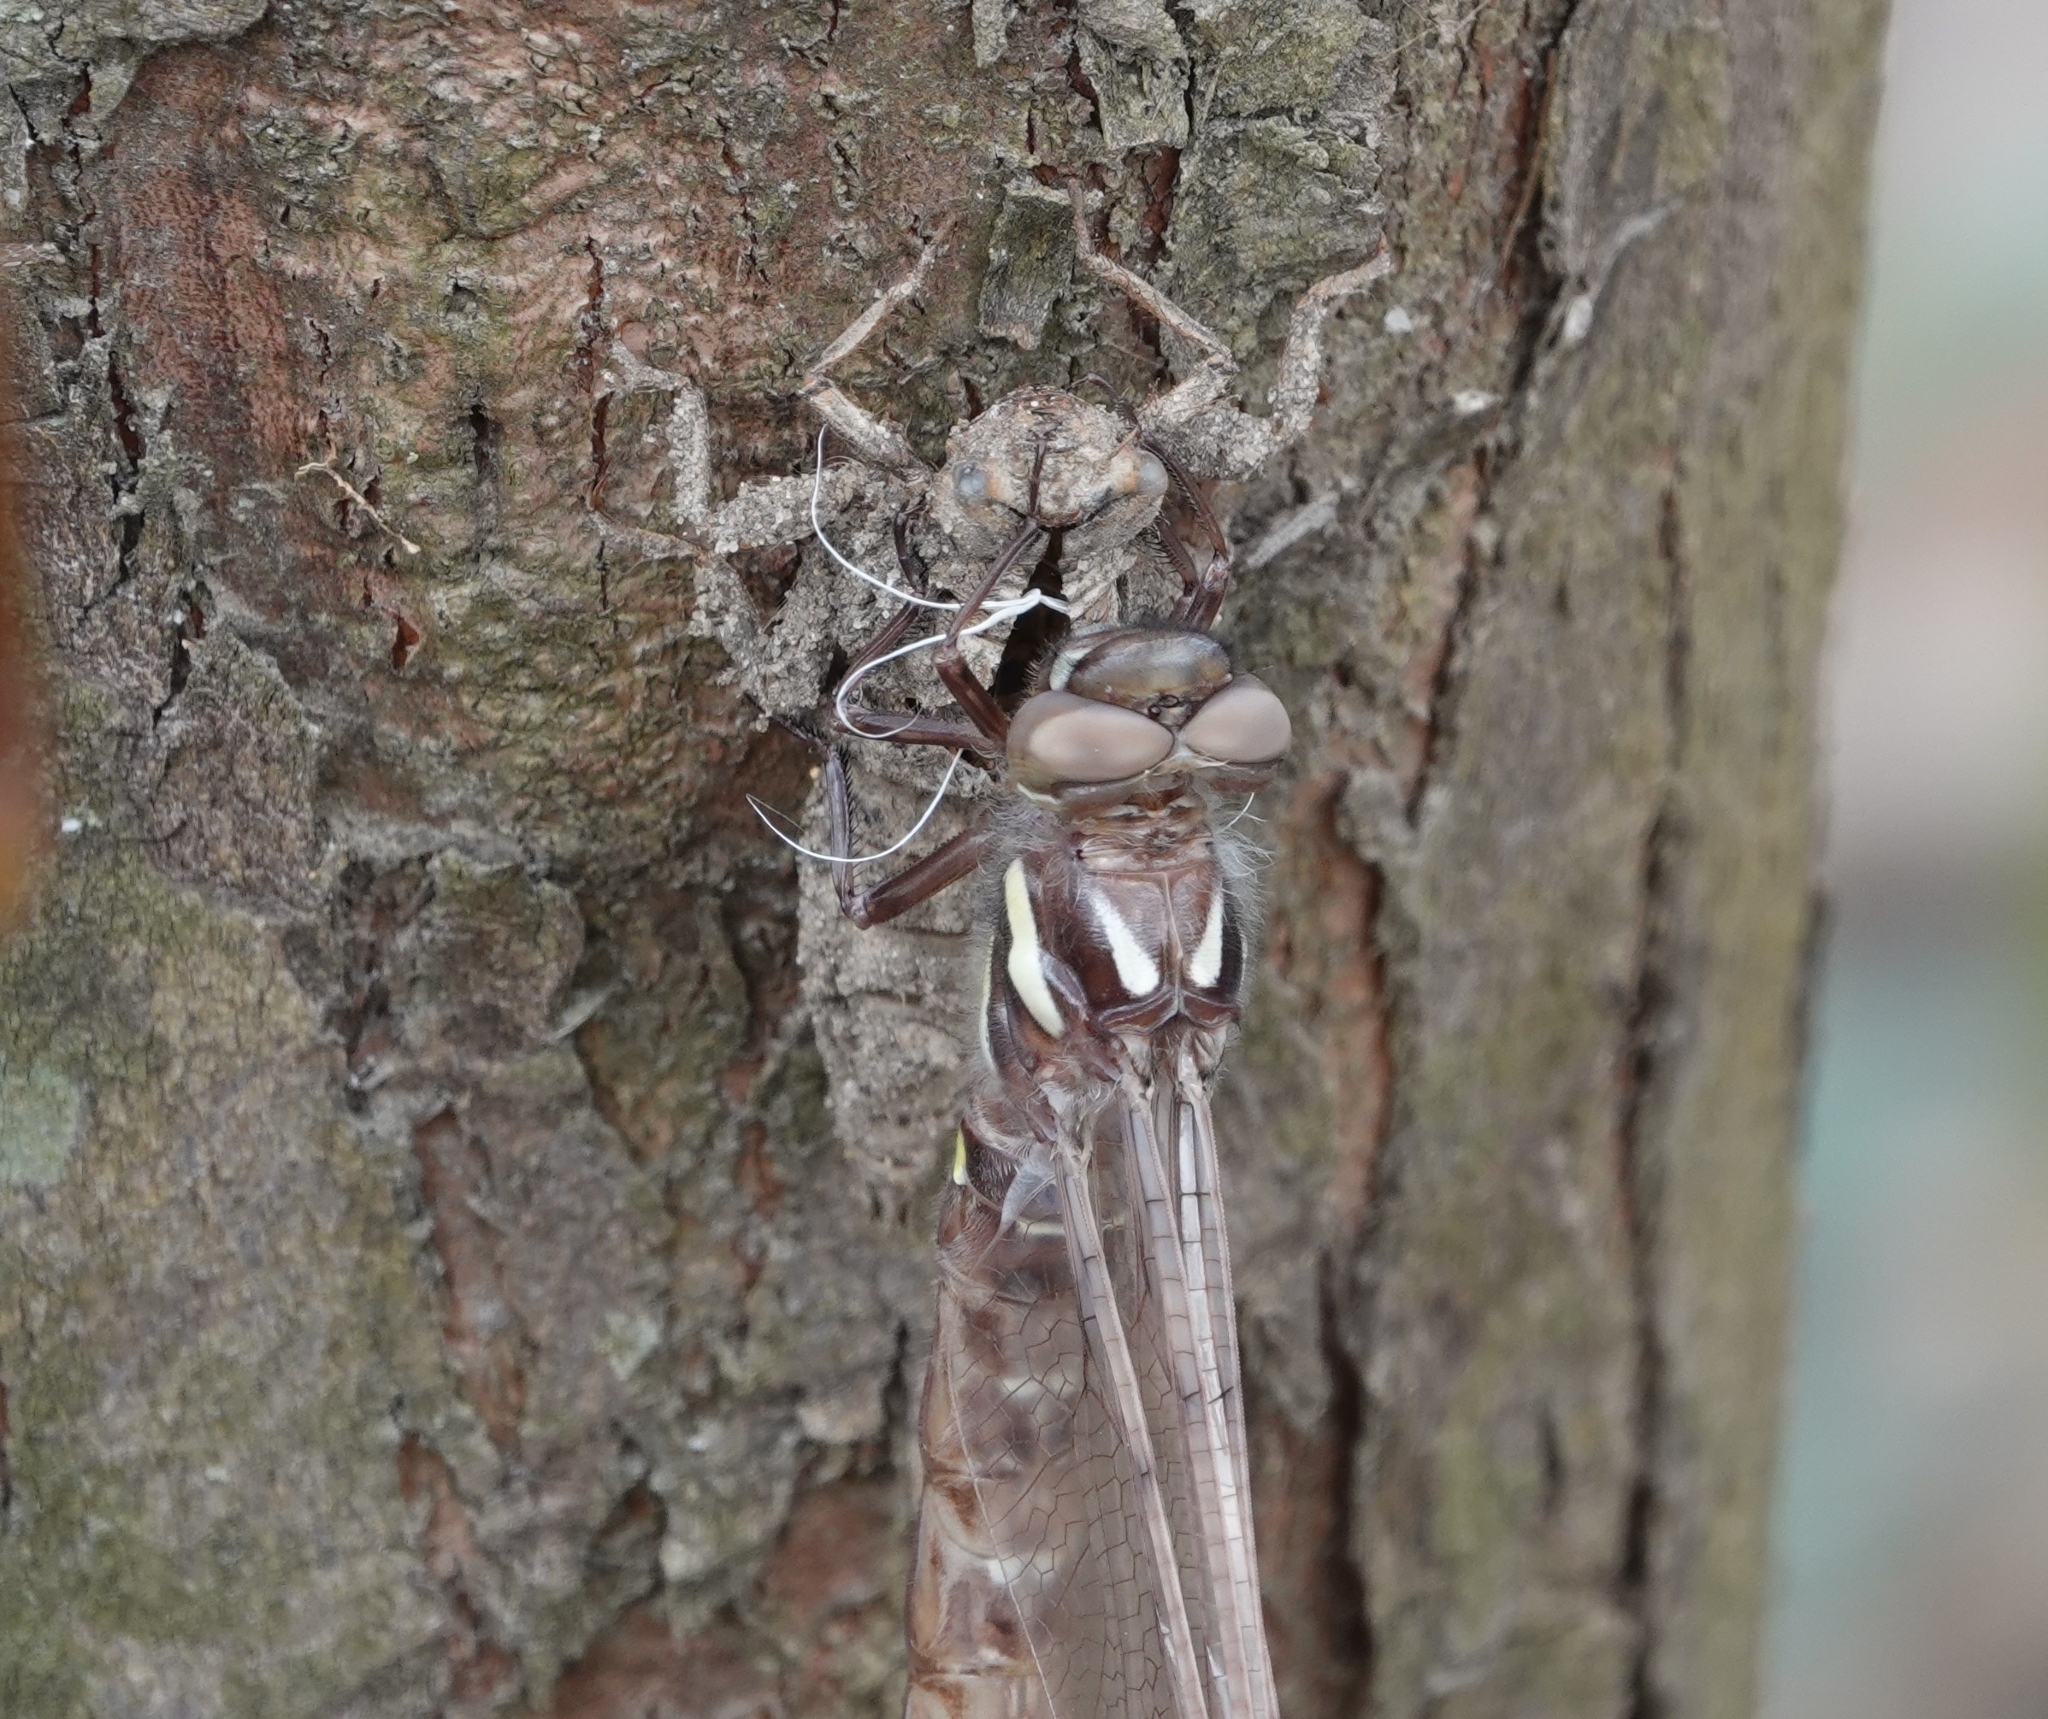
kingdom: Animalia
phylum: Arthropoda
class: Insecta
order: Odonata
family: Cordulegastridae
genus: Cordulegaster
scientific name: Cordulegaster maculata
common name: Twin-spotted spiketail
